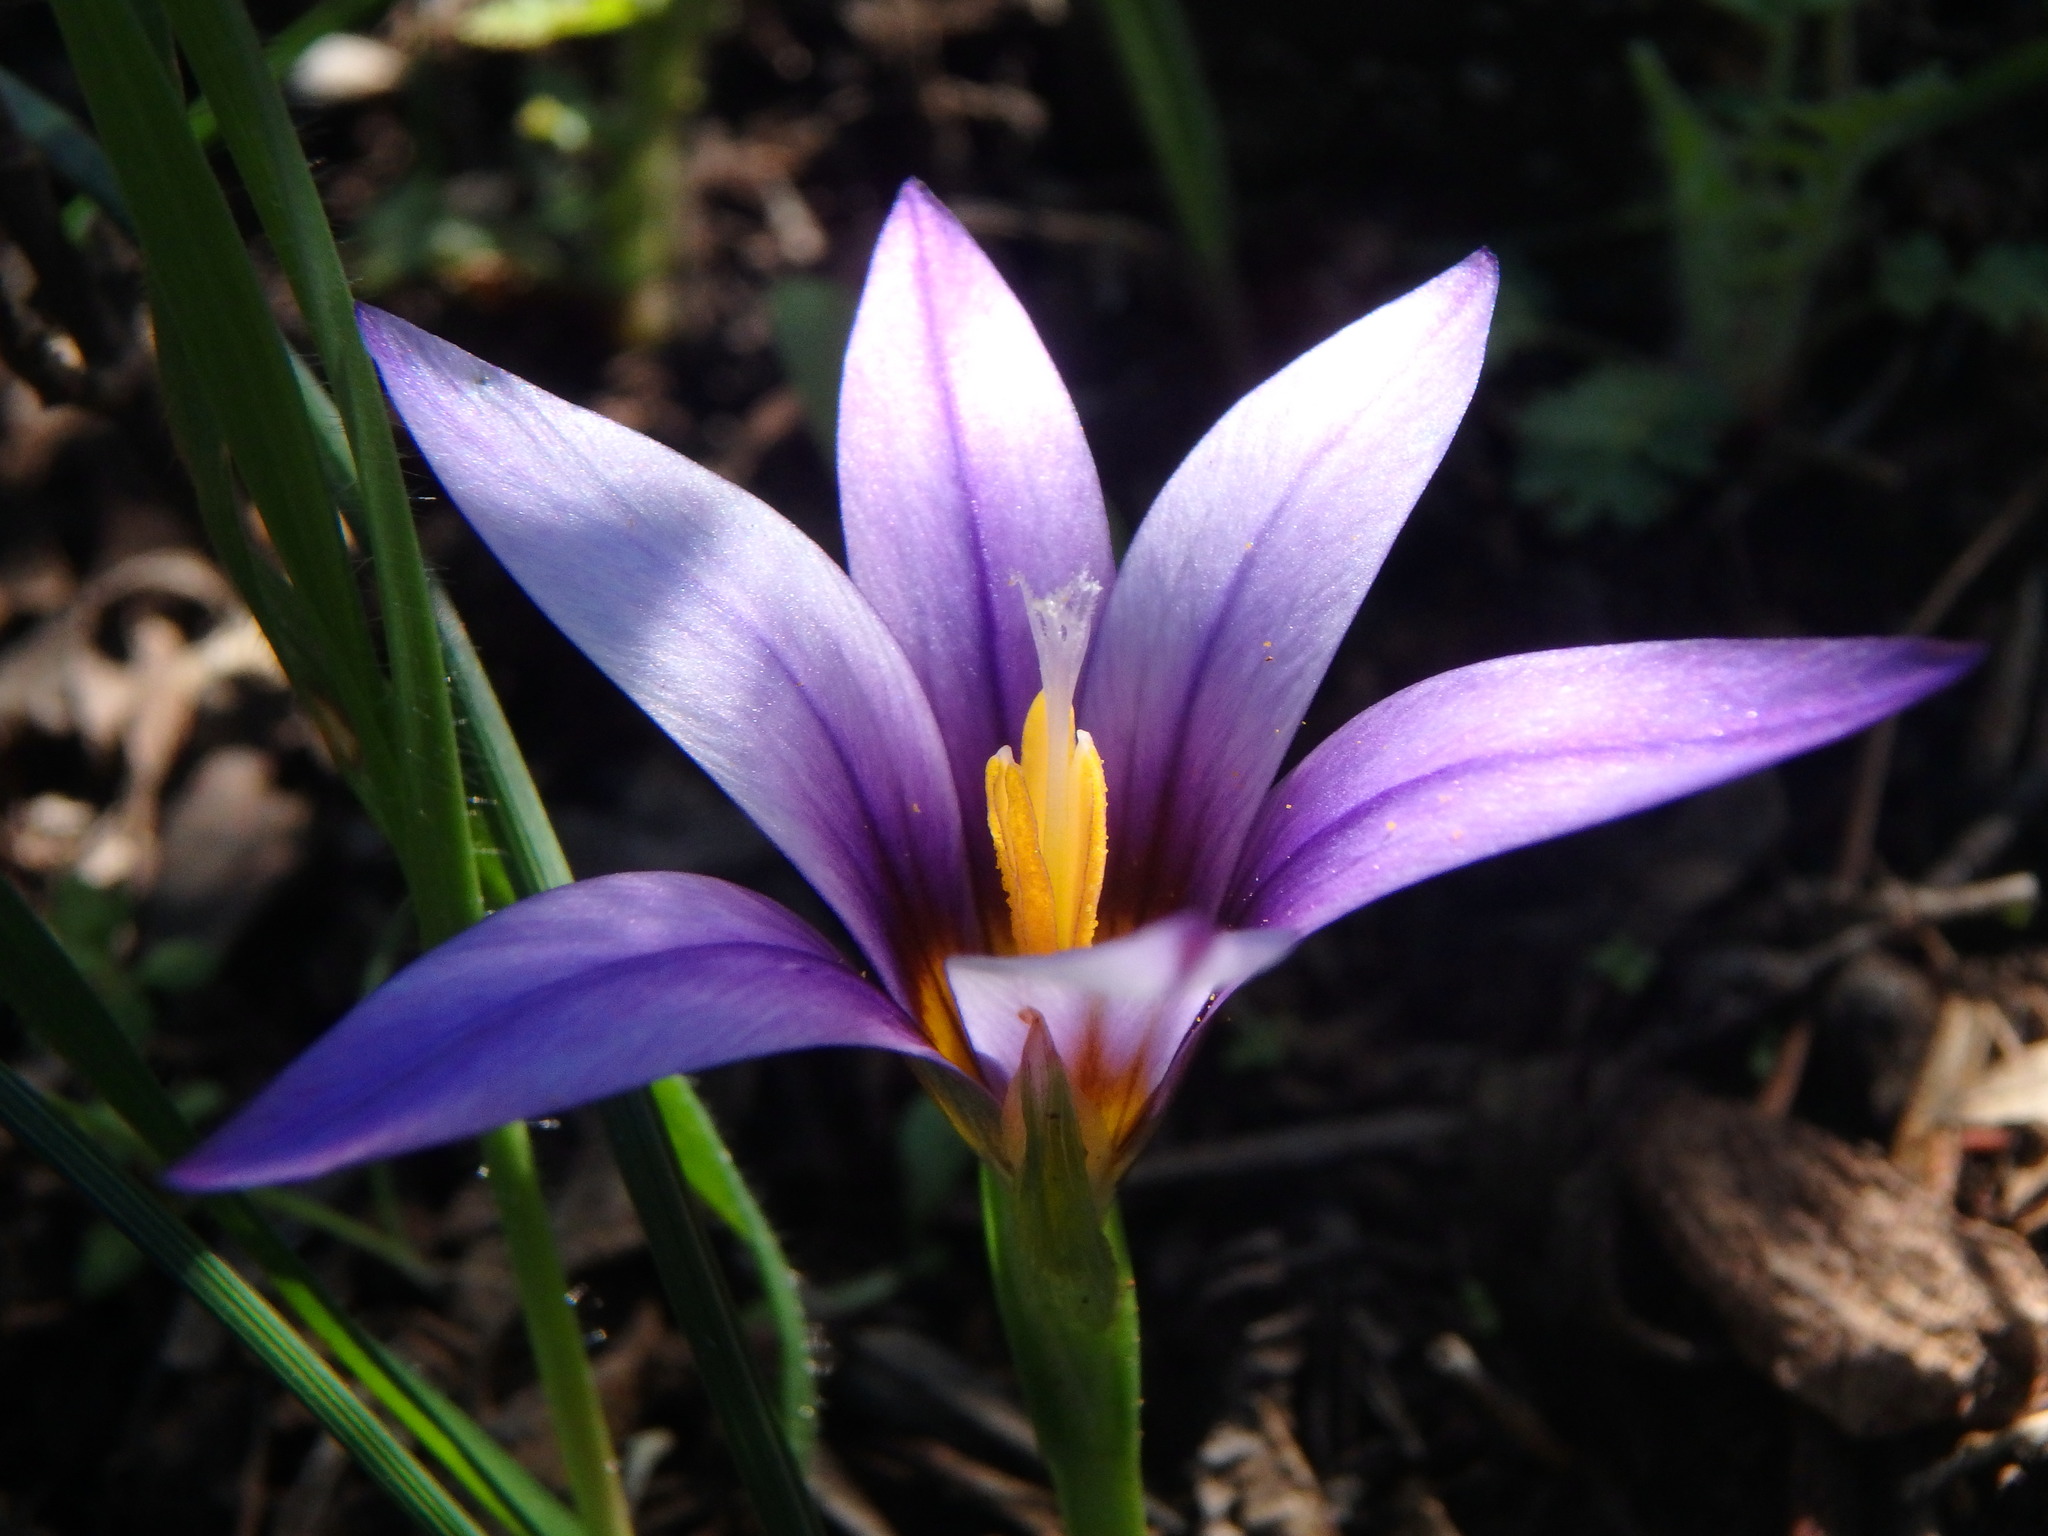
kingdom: Plantae
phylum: Tracheophyta
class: Liliopsida
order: Asparagales
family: Iridaceae
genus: Romulea
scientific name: Romulea columnae
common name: Sand-crocus
